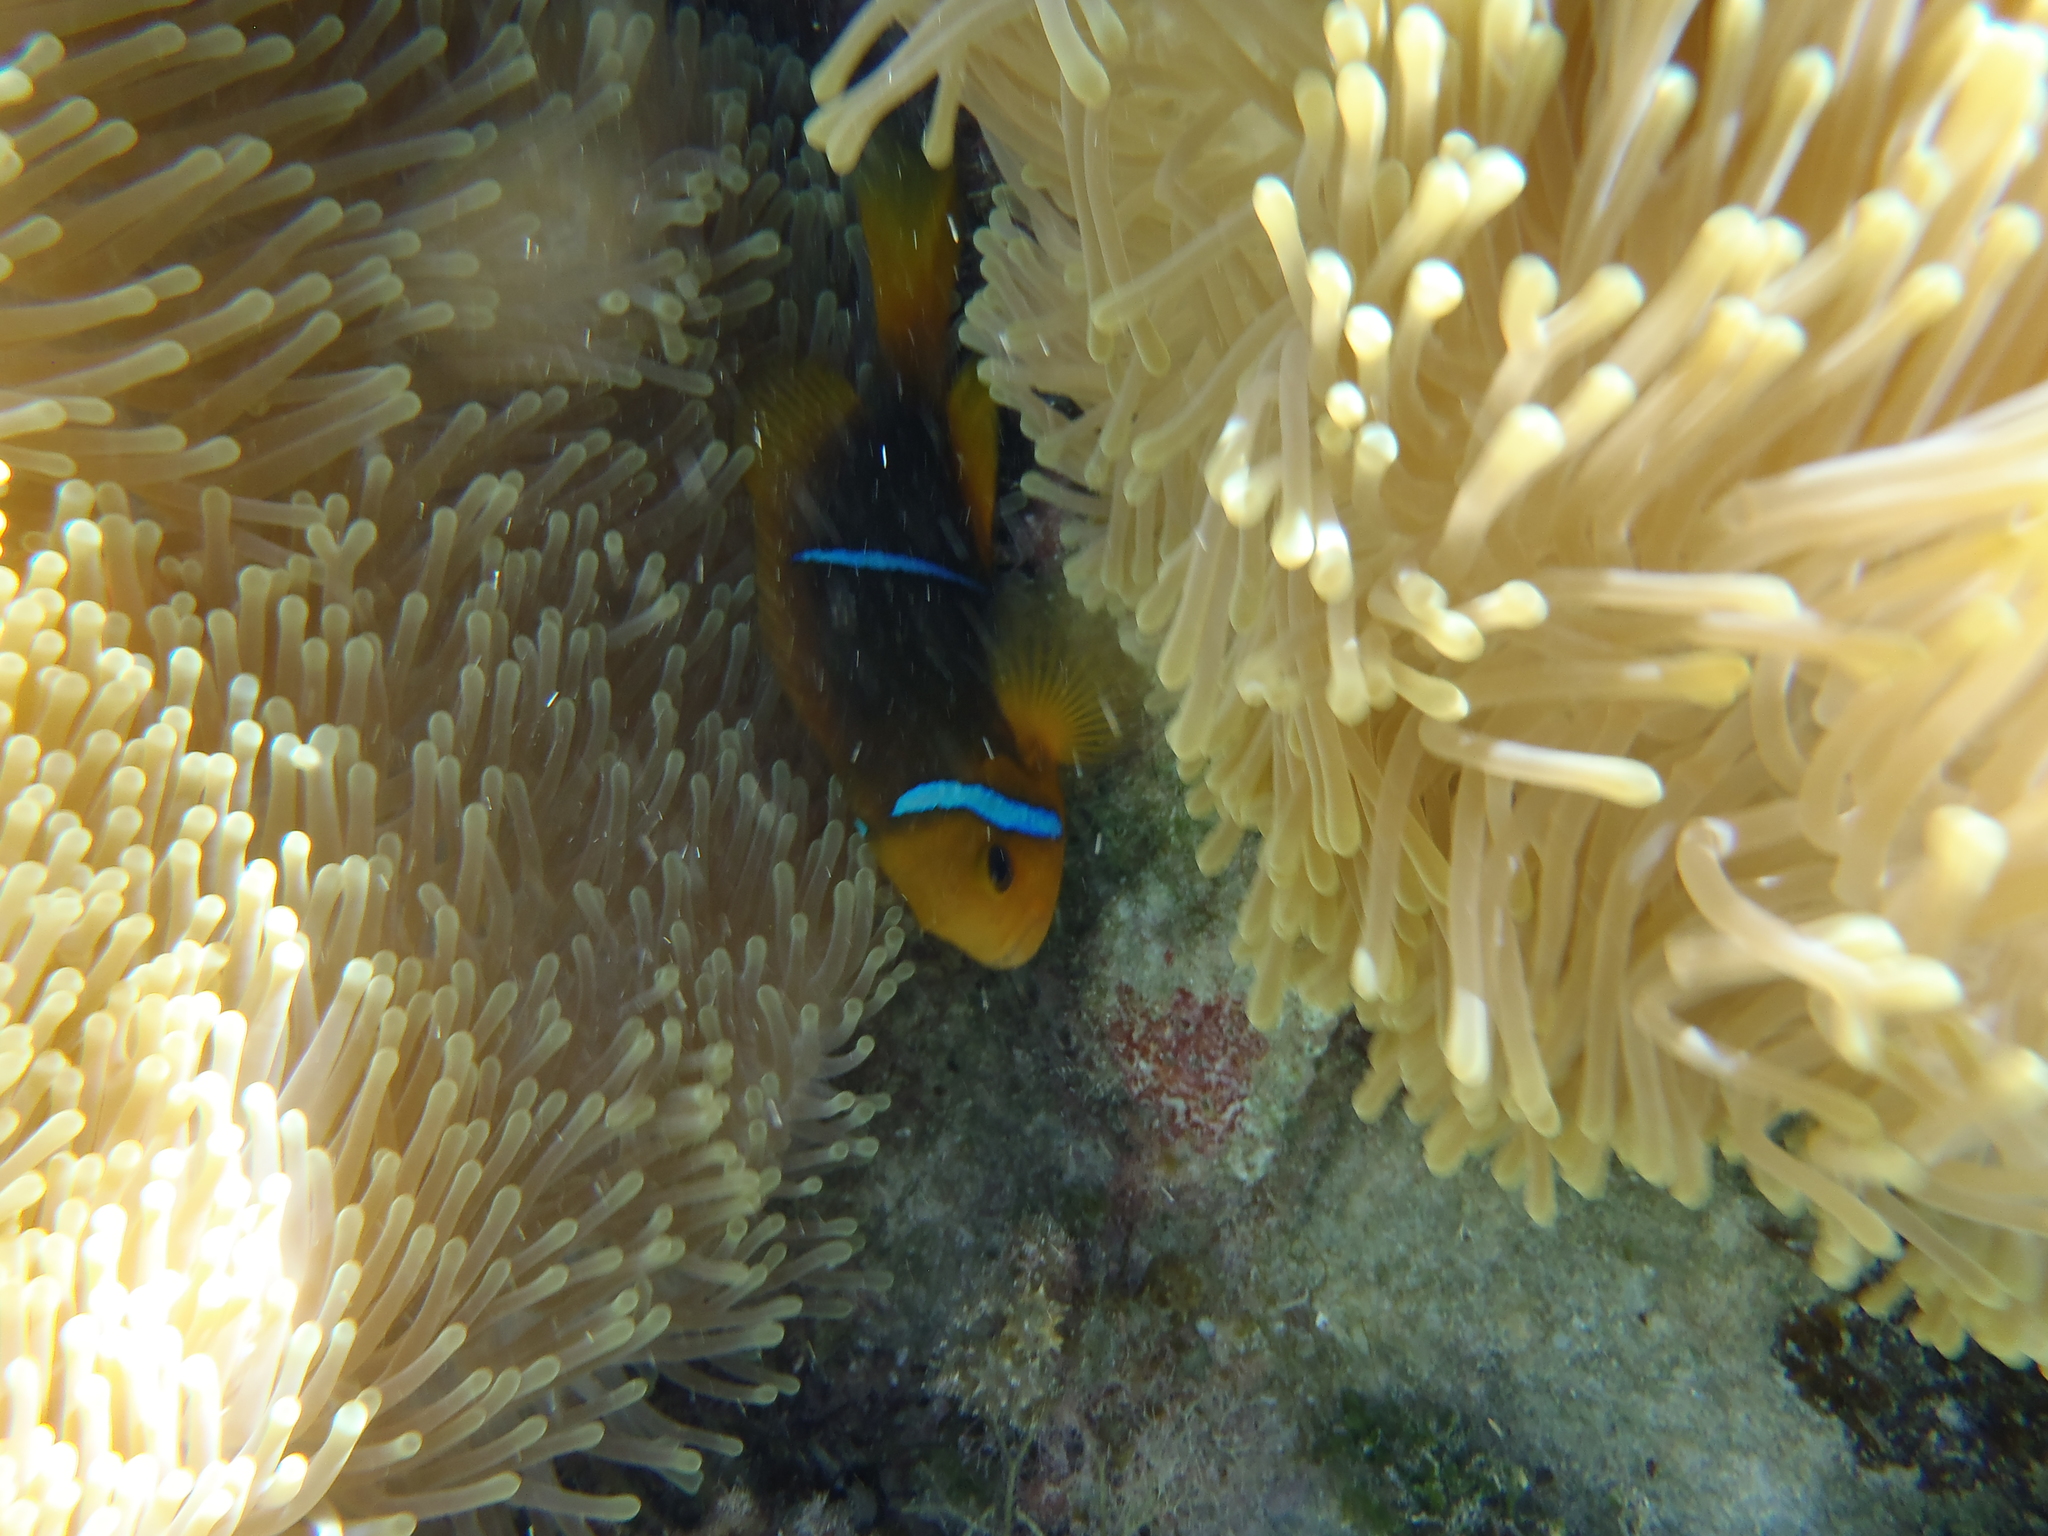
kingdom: Animalia
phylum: Chordata
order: Perciformes
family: Pomacentridae
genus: Amphiprion
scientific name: Amphiprion chrysopterus
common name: Orange-fin anemonefish
